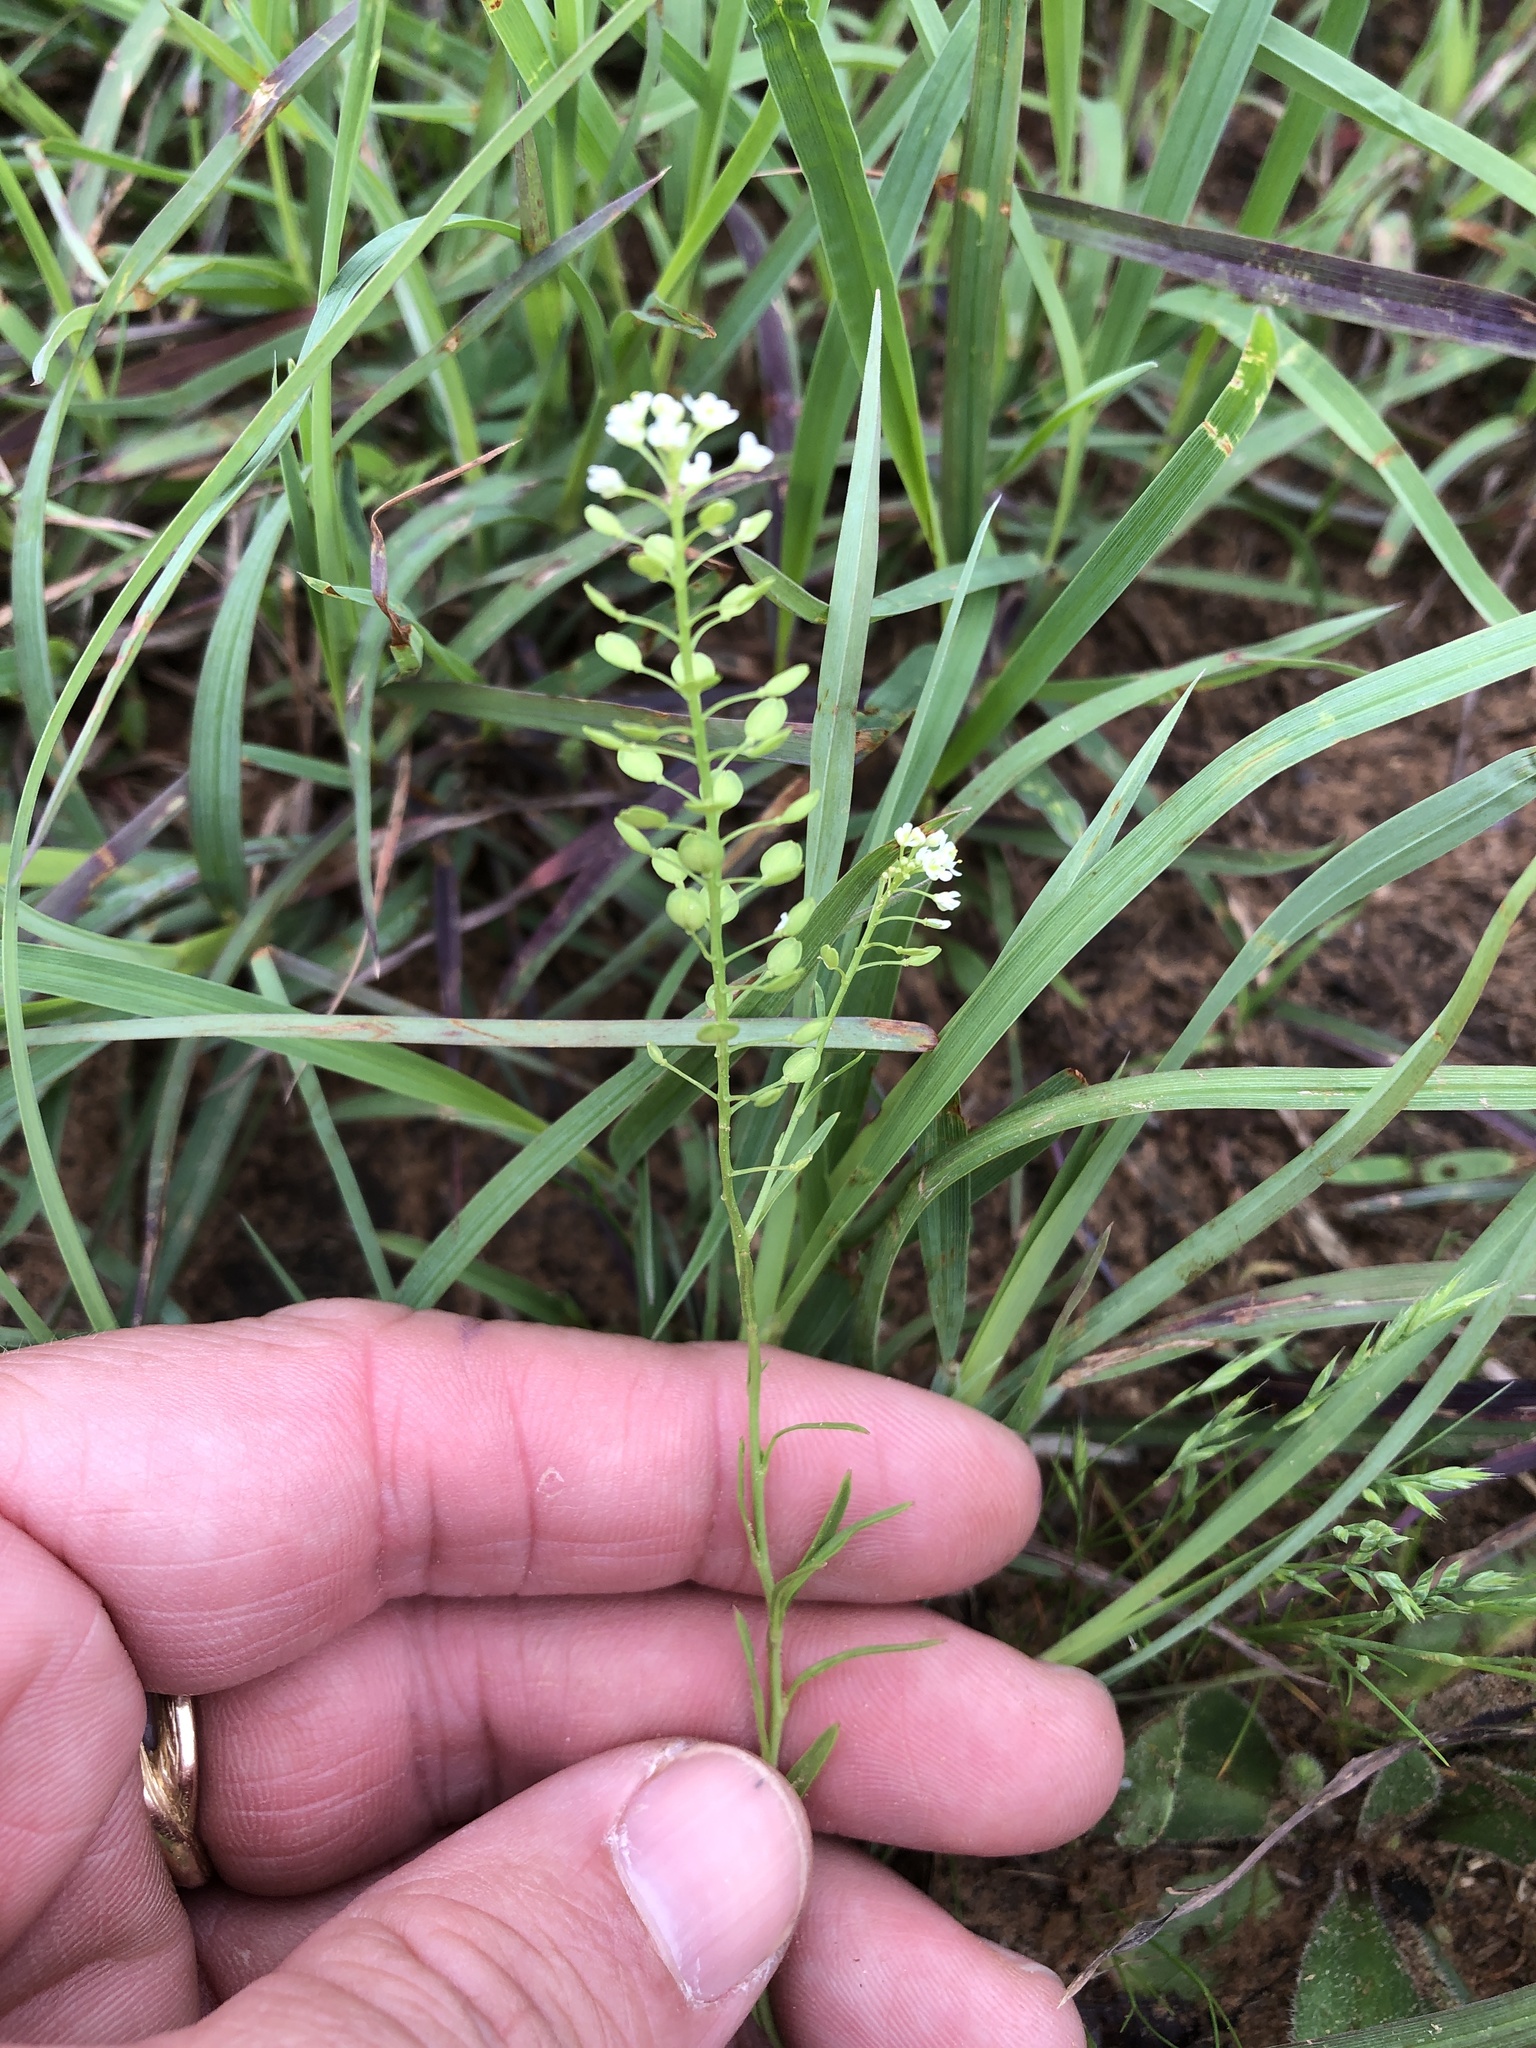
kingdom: Plantae
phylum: Tracheophyta
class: Magnoliopsida
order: Brassicales
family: Brassicaceae
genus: Lepidium
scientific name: Lepidium virginicum
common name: Least pepperwort
